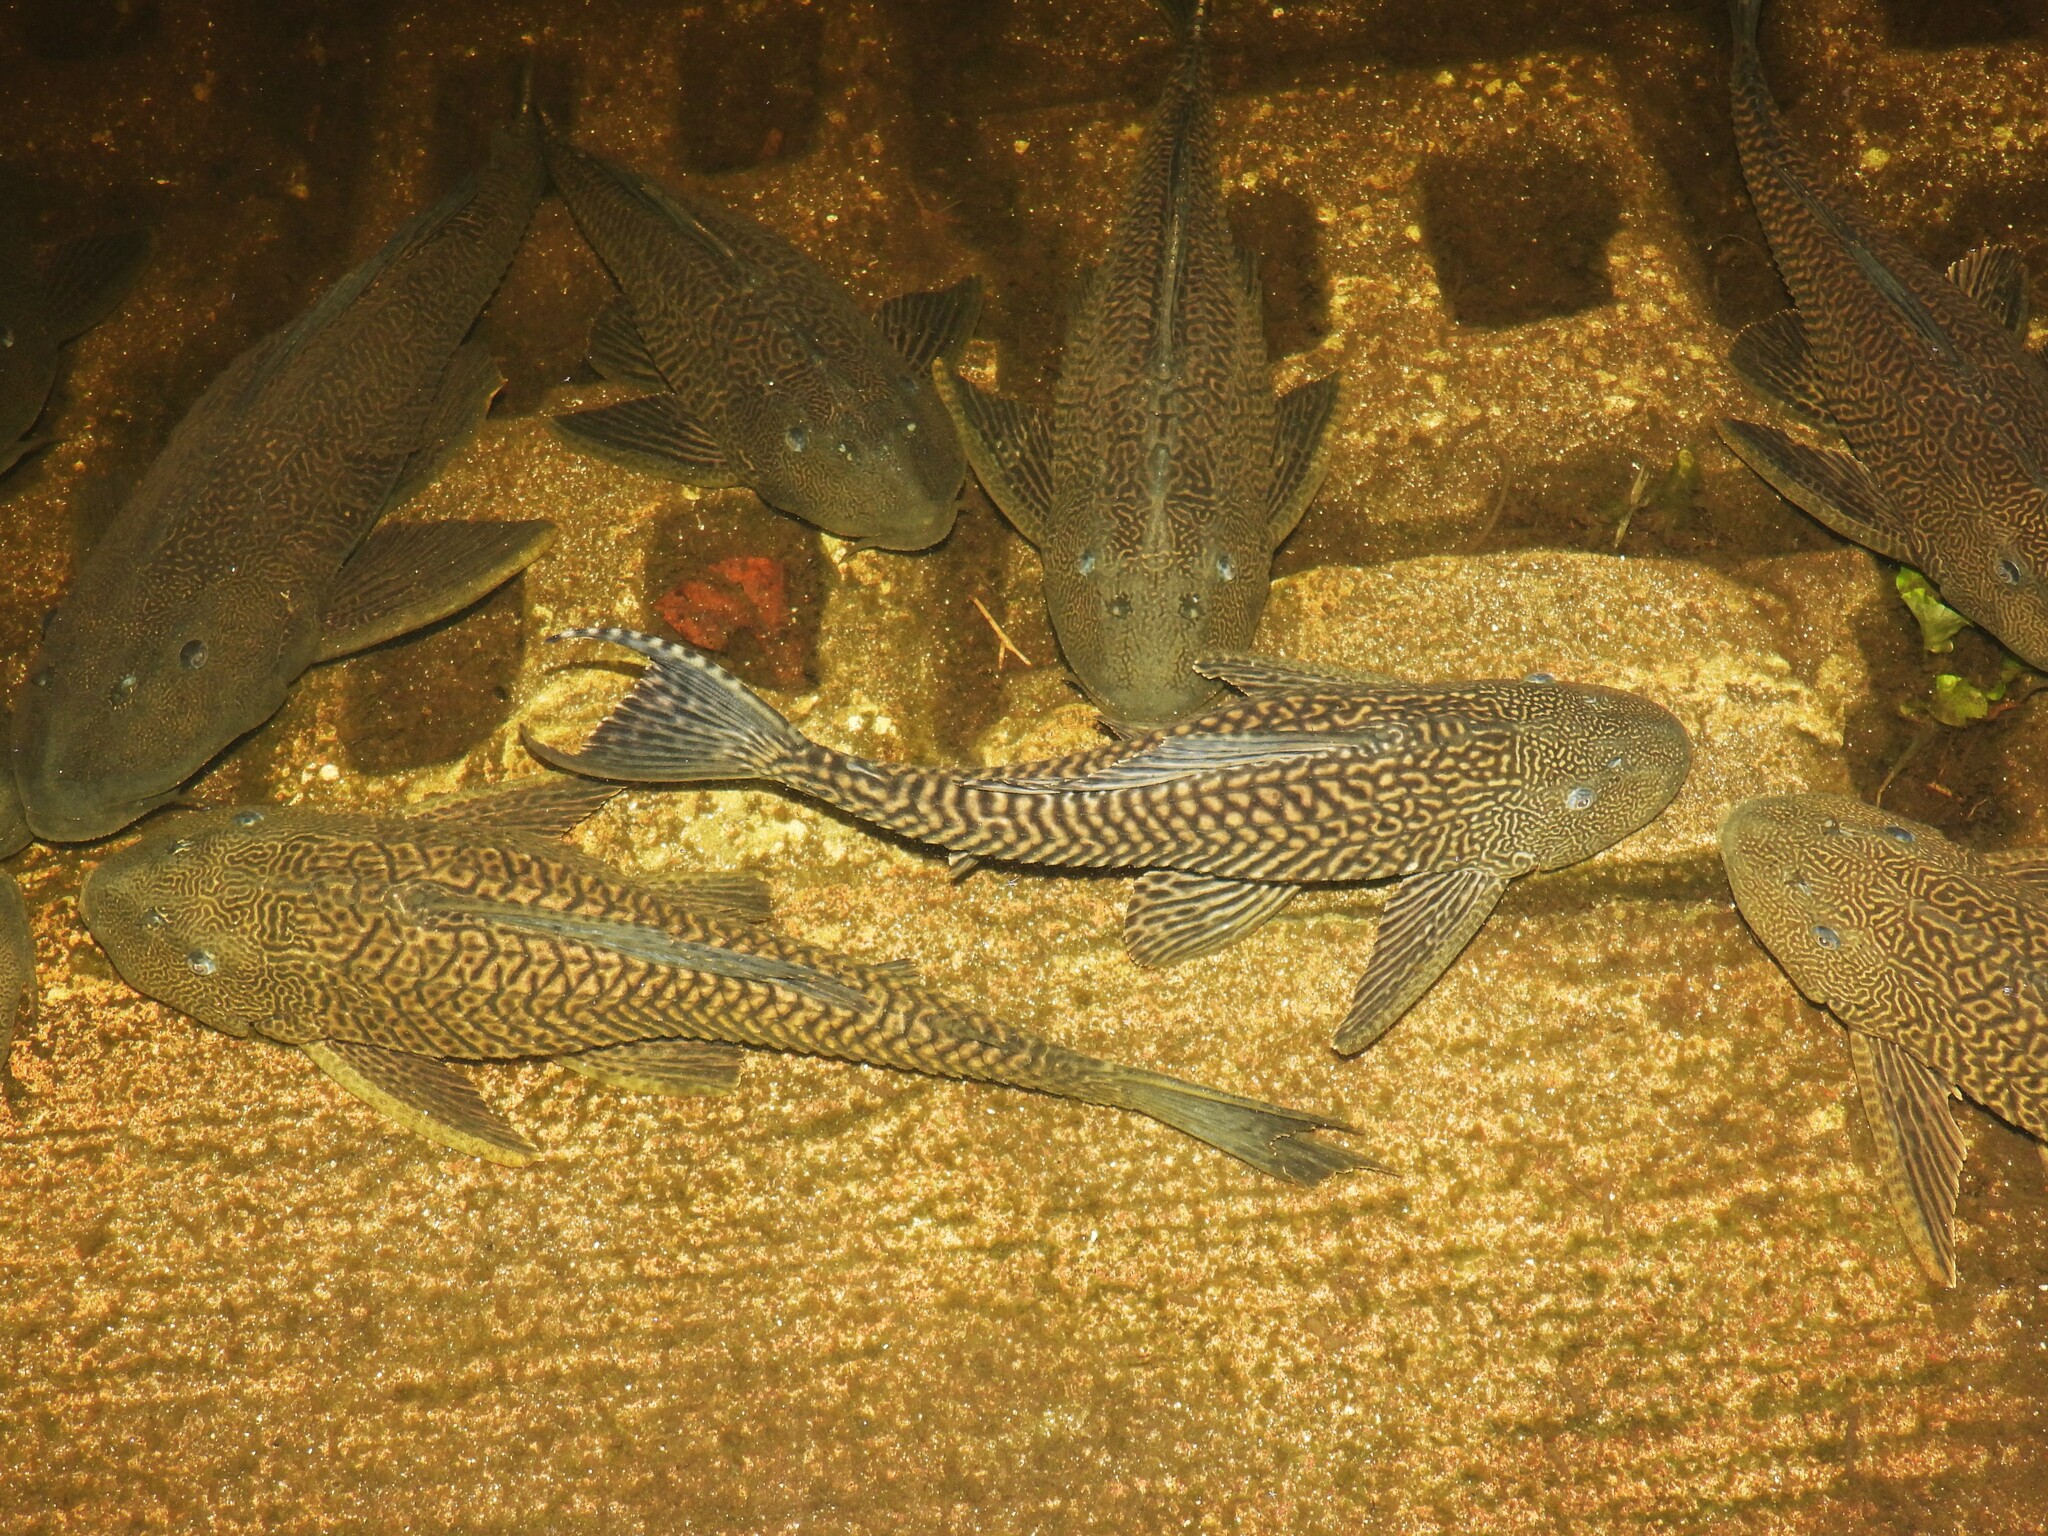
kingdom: Animalia
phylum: Chordata
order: Siluriformes
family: Loricariidae
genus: Pterygoplichthys
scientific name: Pterygoplichthys
